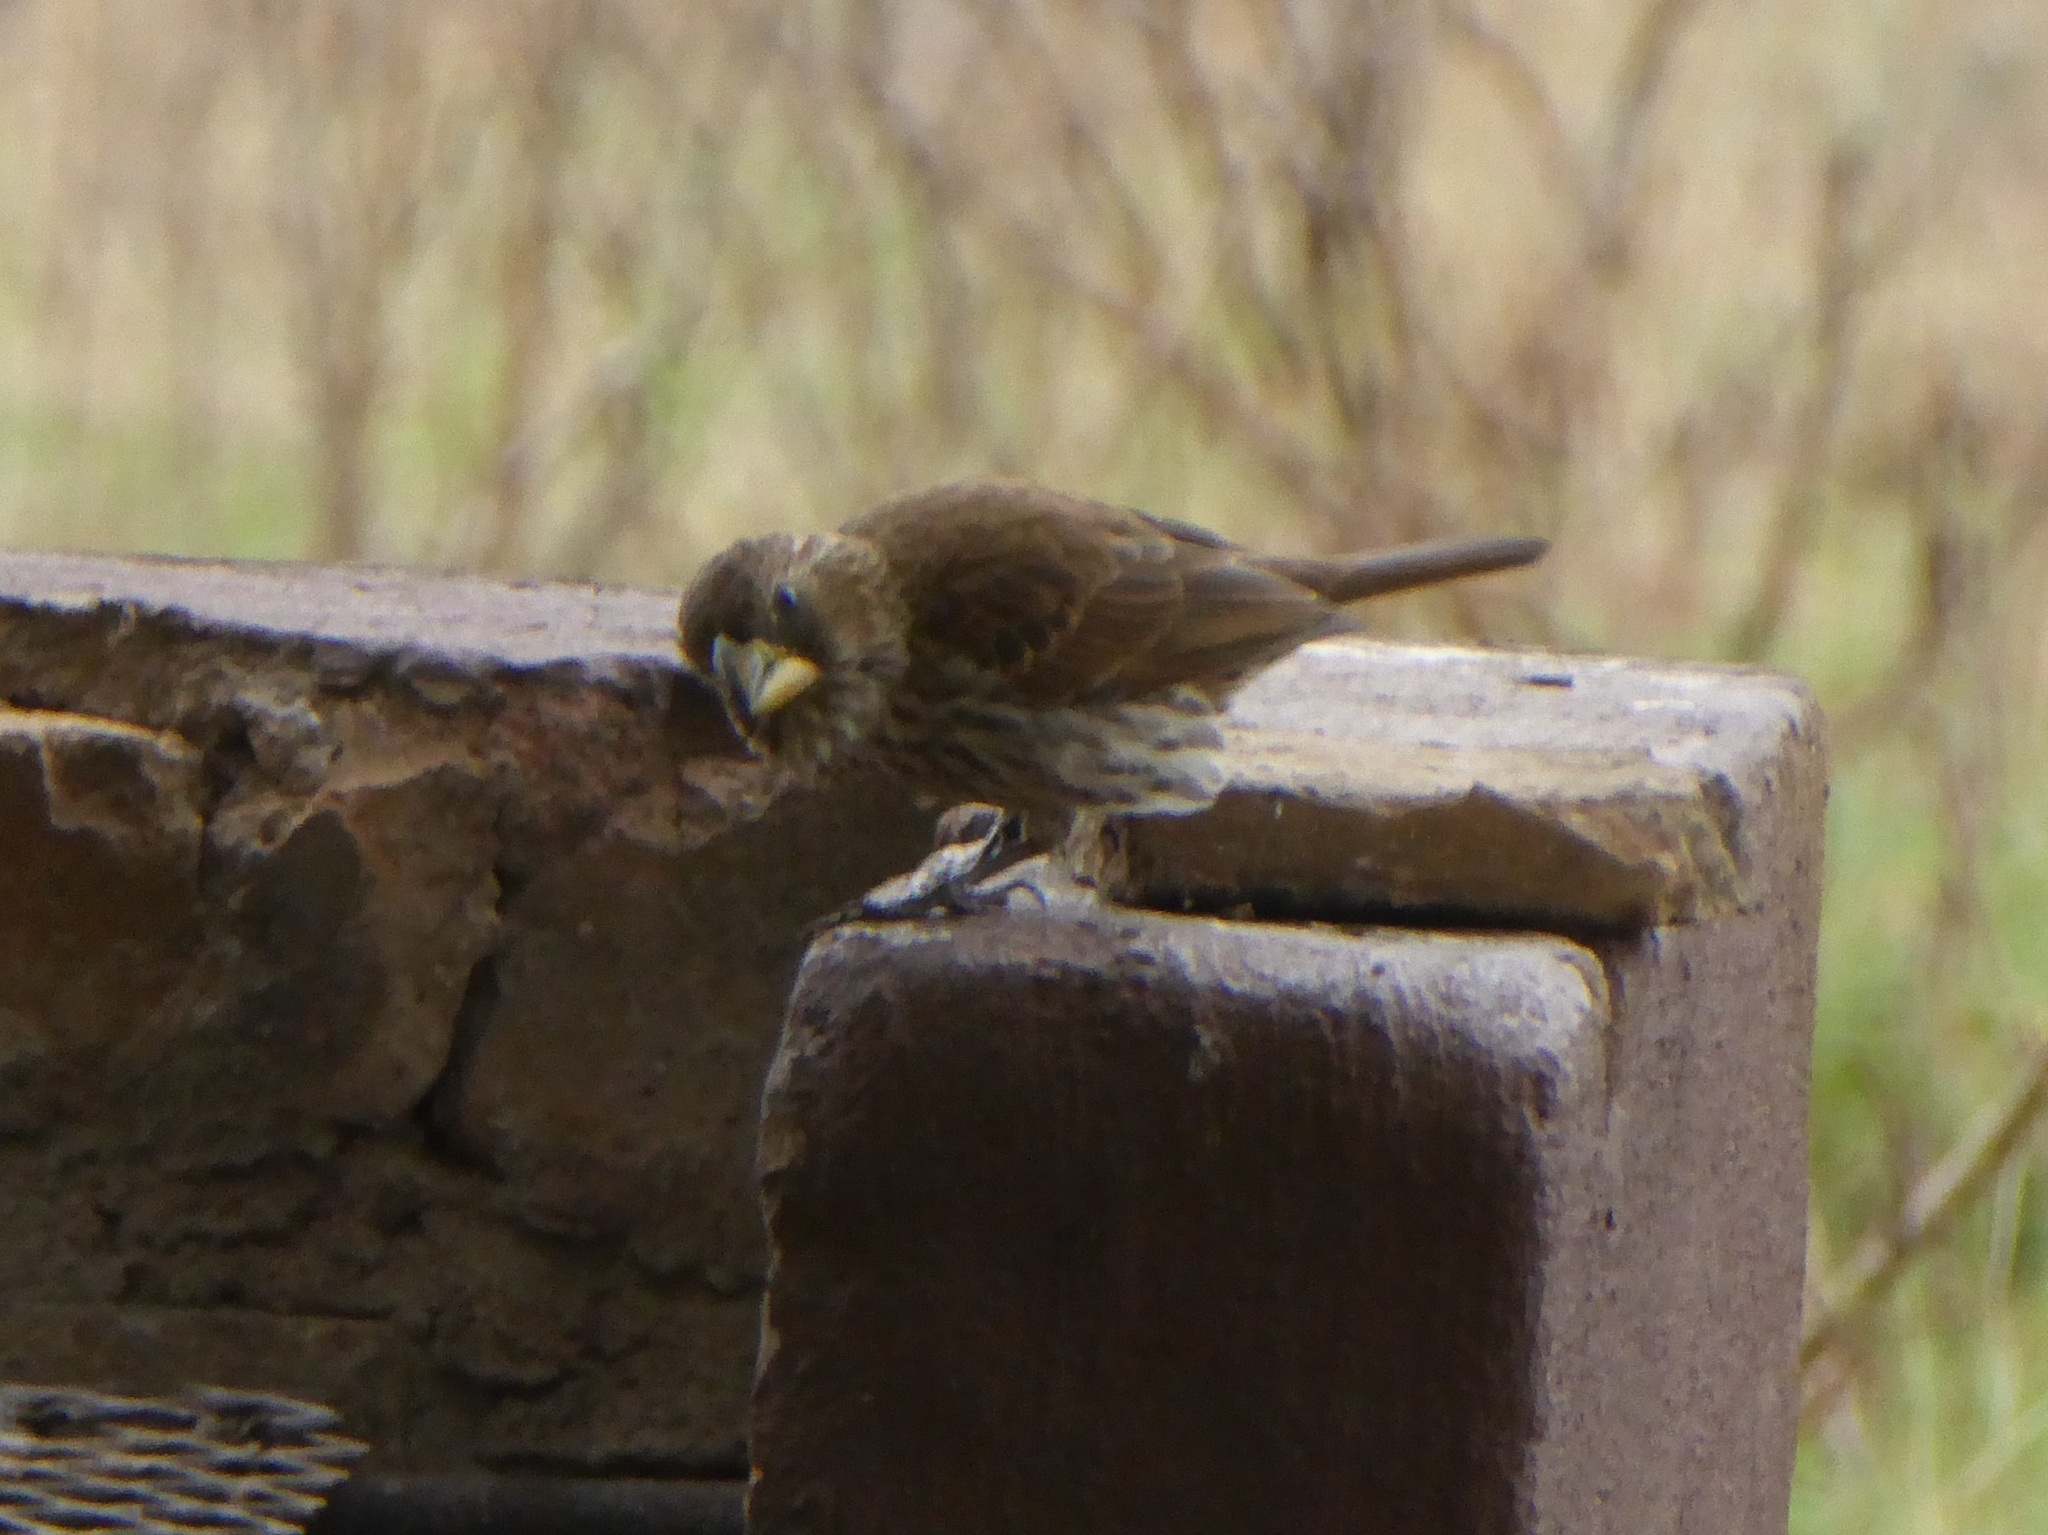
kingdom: Animalia
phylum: Chordata
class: Aves
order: Passeriformes
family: Ploceidae
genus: Amblyospiza
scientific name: Amblyospiza albifrons
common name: Thick-billed weaver
